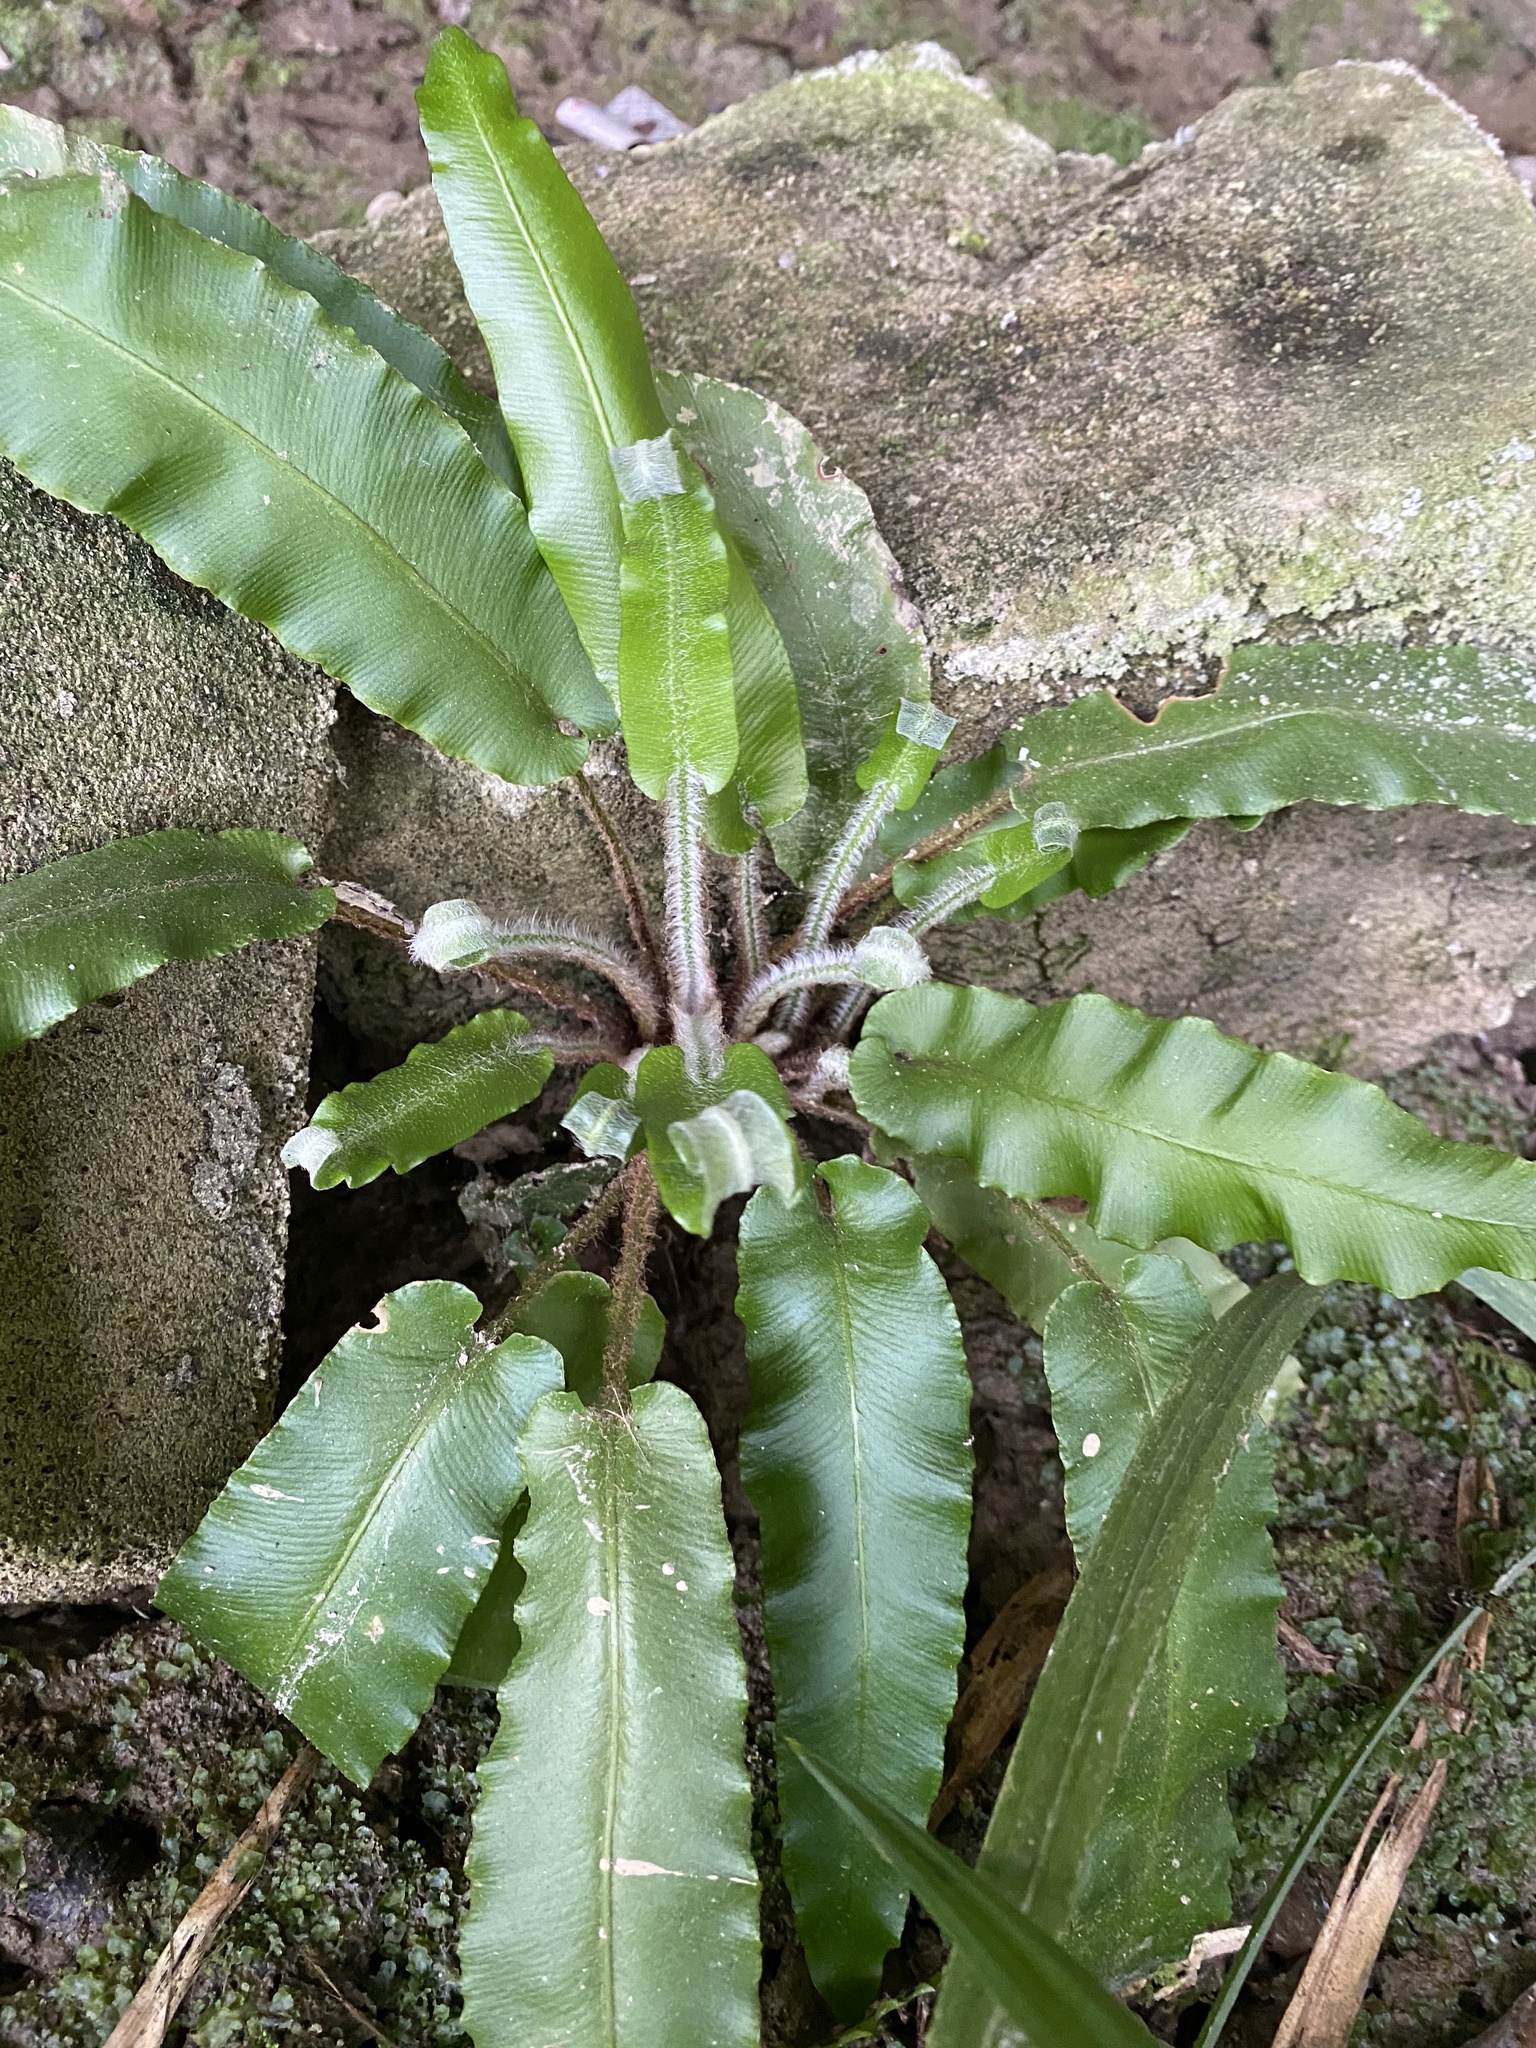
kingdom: Plantae
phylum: Tracheophyta
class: Polypodiopsida
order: Polypodiales
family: Aspleniaceae
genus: Asplenium
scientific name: Asplenium scolopendrium
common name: Hart's-tongue fern
